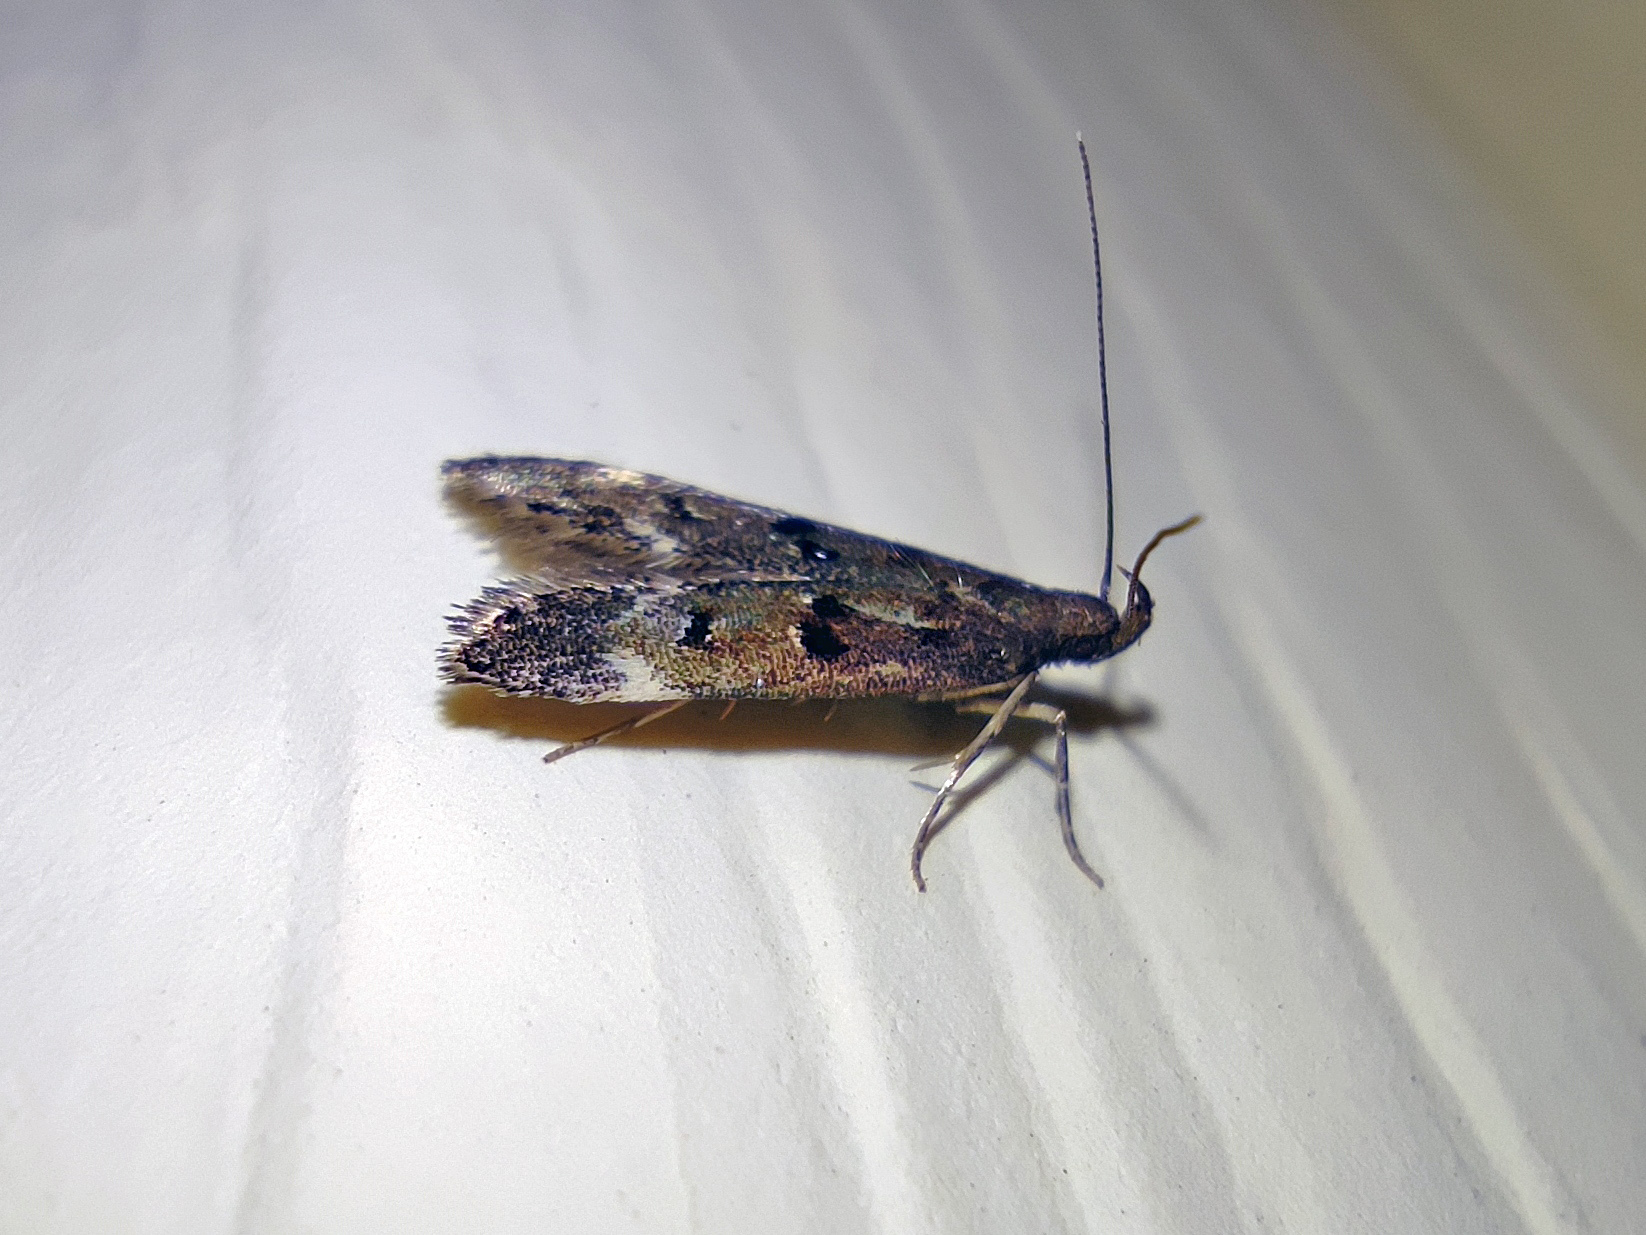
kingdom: Animalia
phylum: Arthropoda
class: Insecta
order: Lepidoptera
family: Gelechiidae
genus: Acanthophila
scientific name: Acanthophila alacella
